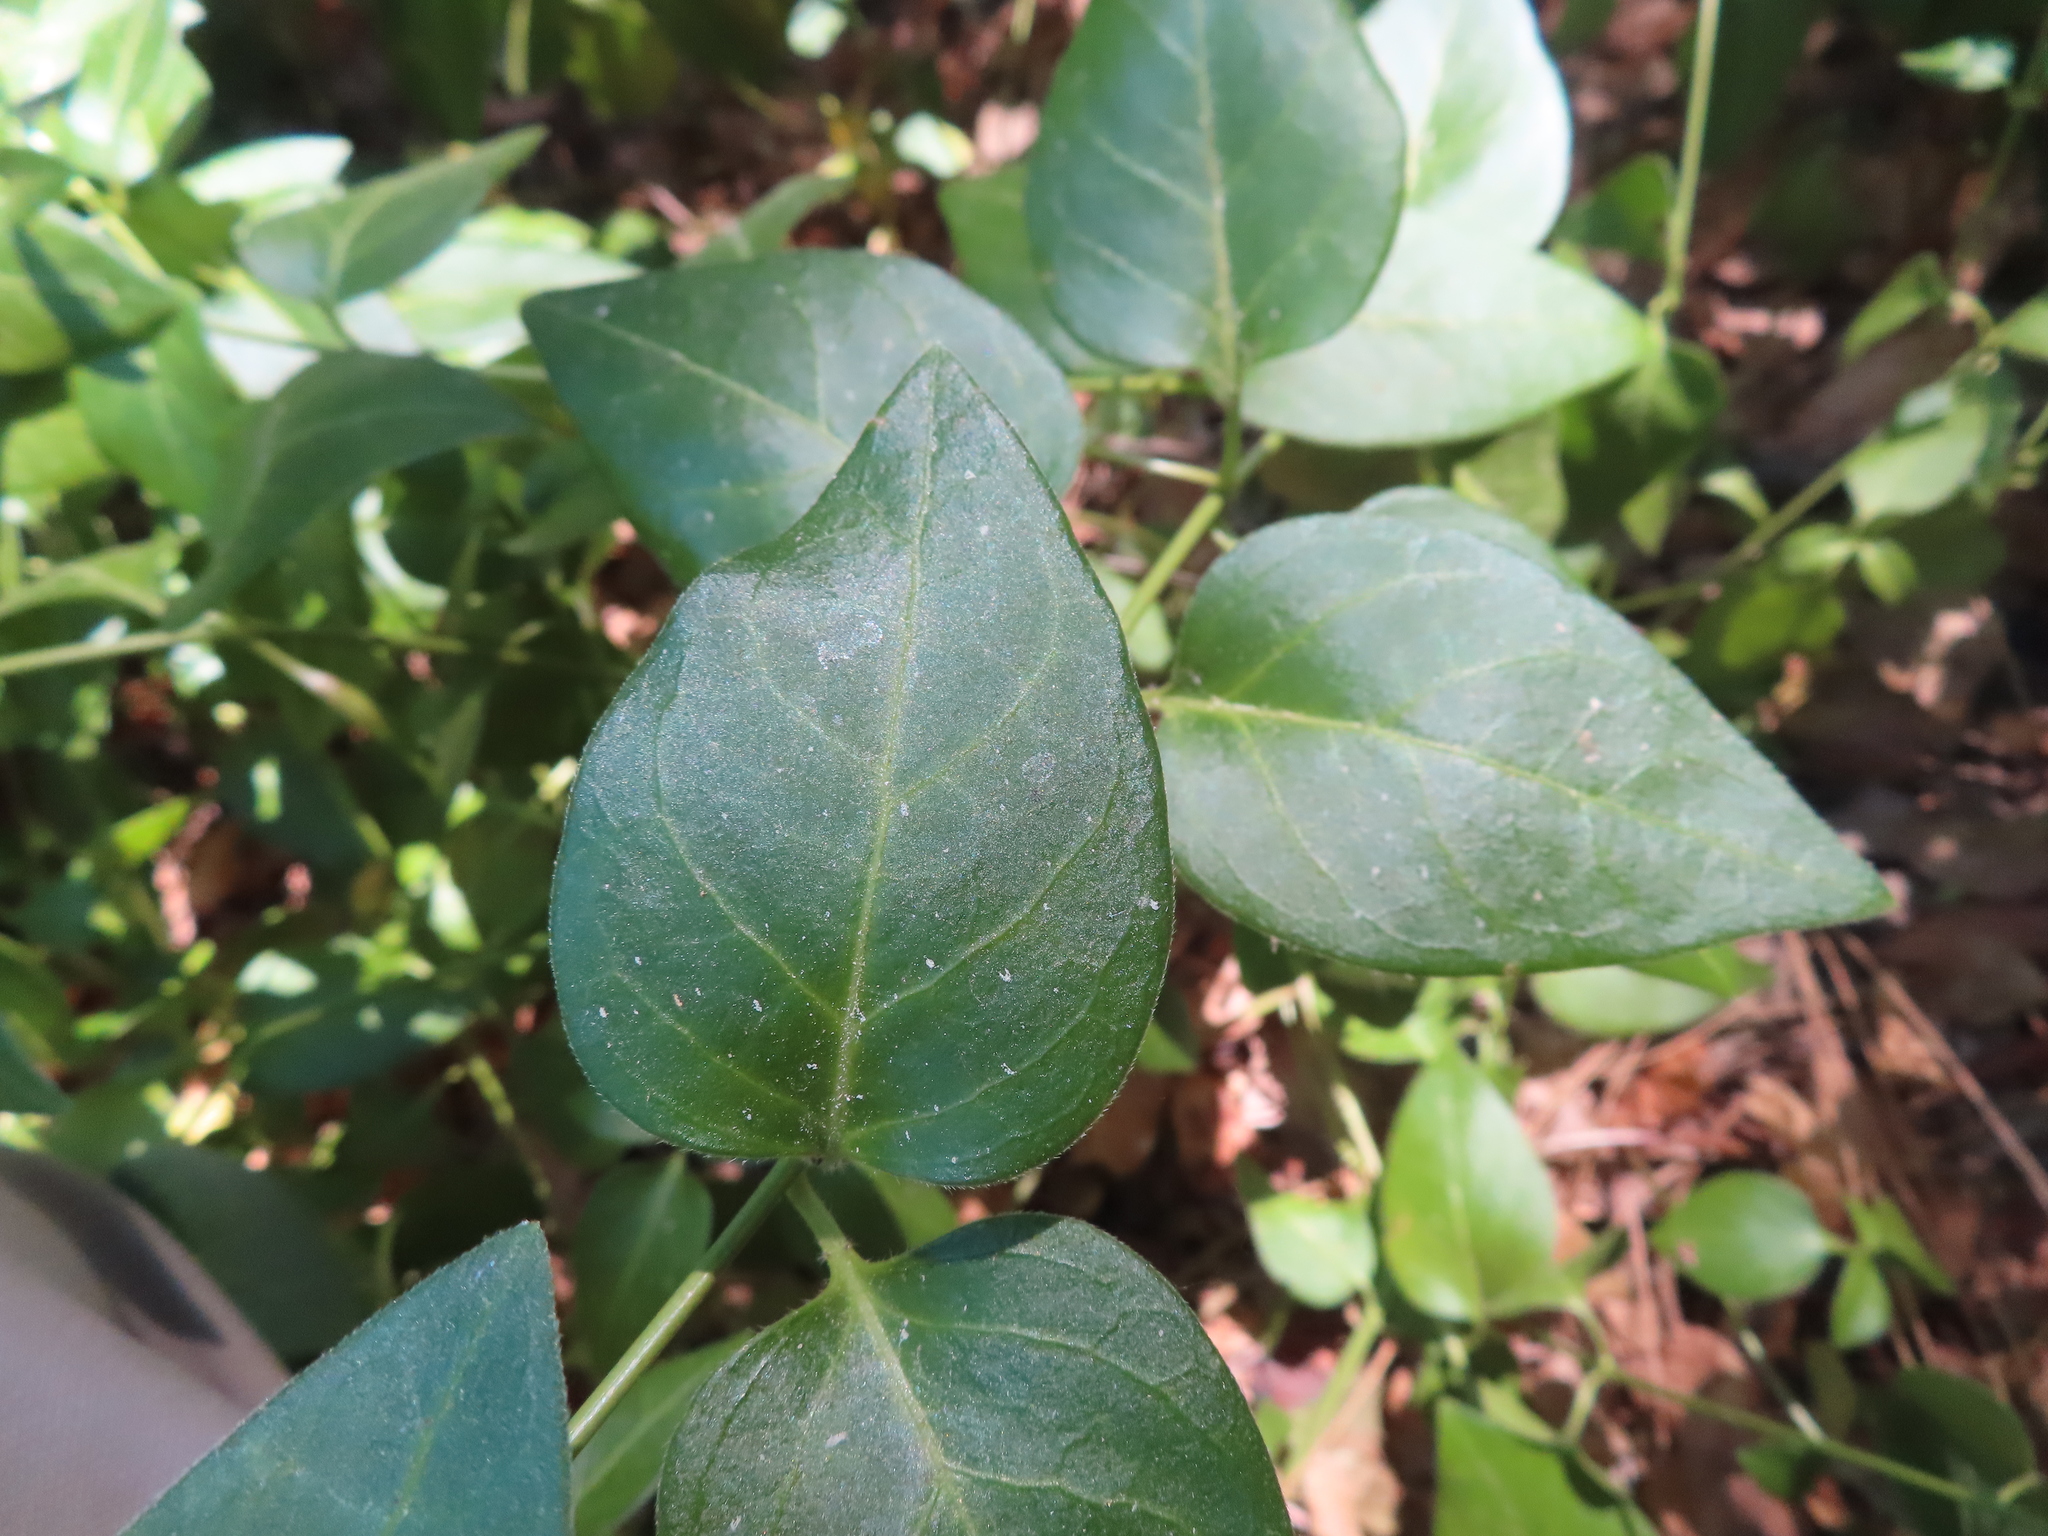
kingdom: Plantae
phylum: Tracheophyta
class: Magnoliopsida
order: Gentianales
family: Apocynaceae
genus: Vinca
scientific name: Vinca major
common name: Greater periwinkle
